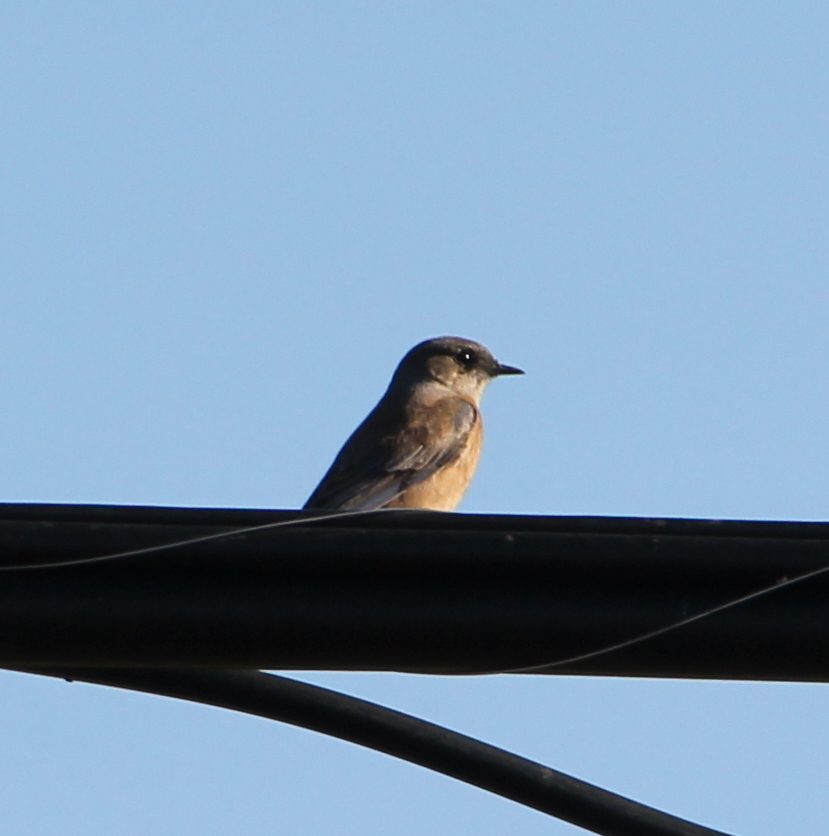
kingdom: Animalia
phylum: Chordata
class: Aves
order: Passeriformes
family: Tyrannidae
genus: Sayornis
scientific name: Sayornis saya
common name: Say's phoebe
